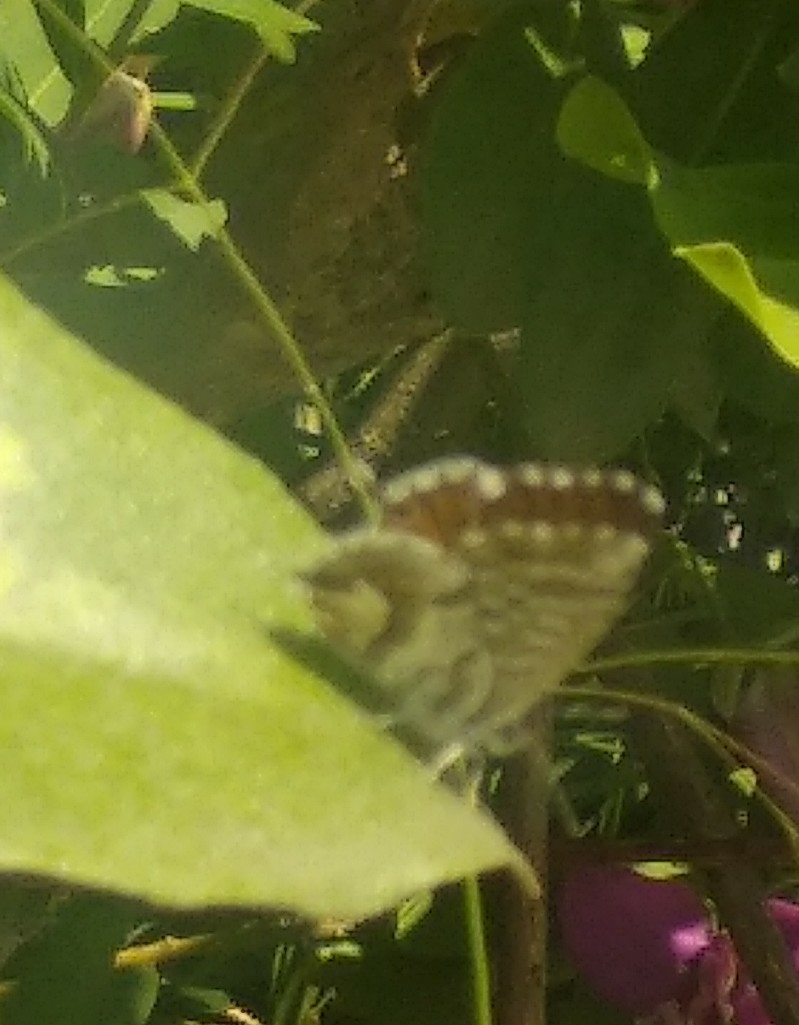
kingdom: Animalia
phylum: Arthropoda
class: Insecta
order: Lepidoptera
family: Lycaenidae
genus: Cacyreus
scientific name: Cacyreus marshalli
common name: Geranium bronze
